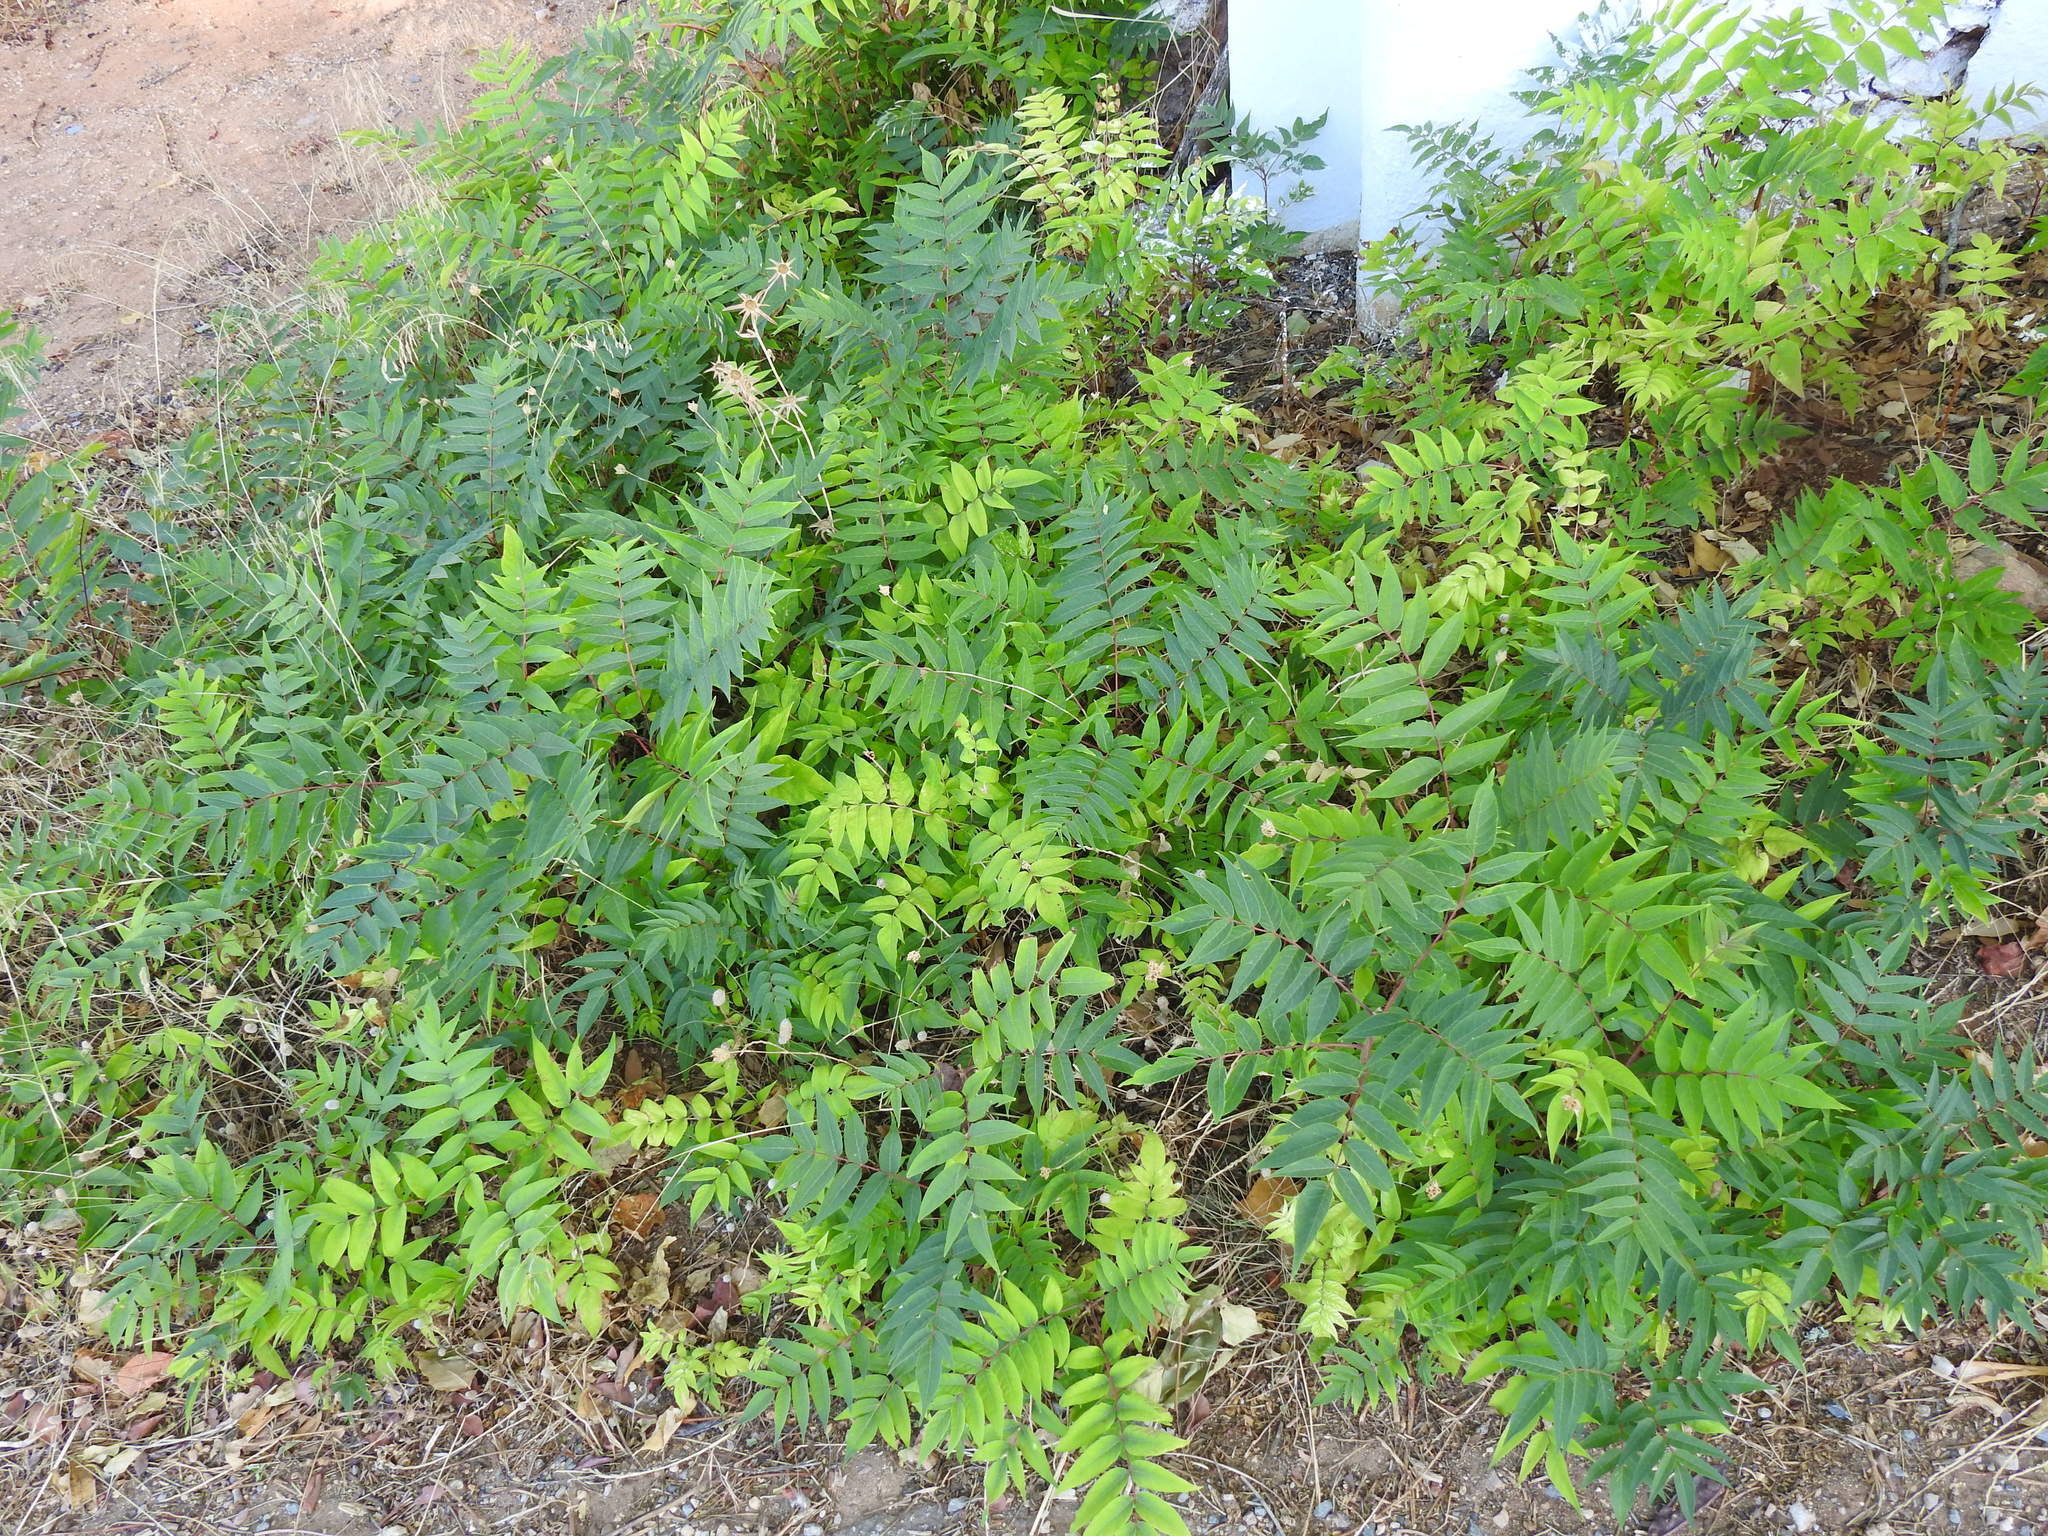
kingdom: Plantae
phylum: Tracheophyta
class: Magnoliopsida
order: Sapindales
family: Simaroubaceae
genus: Ailanthus
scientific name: Ailanthus altissima
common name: Tree-of-heaven
